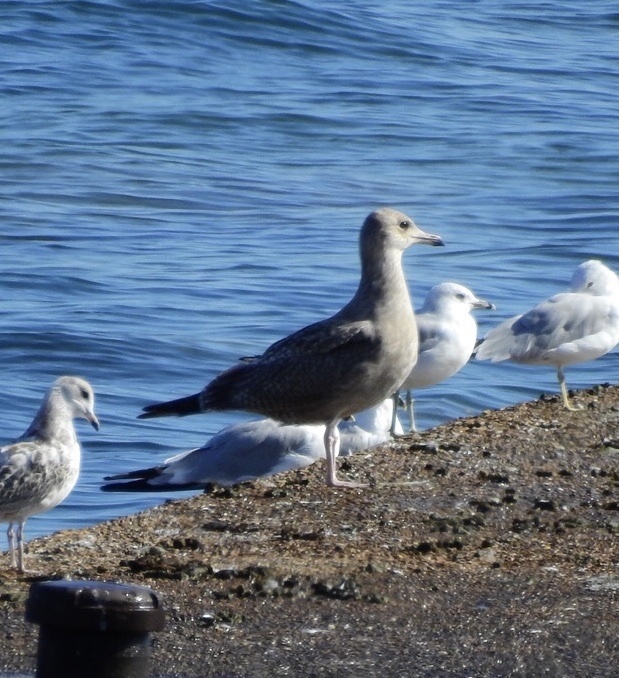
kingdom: Animalia
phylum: Chordata
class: Aves
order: Charadriiformes
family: Laridae
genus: Larus
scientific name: Larus argentatus
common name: Herring gull
